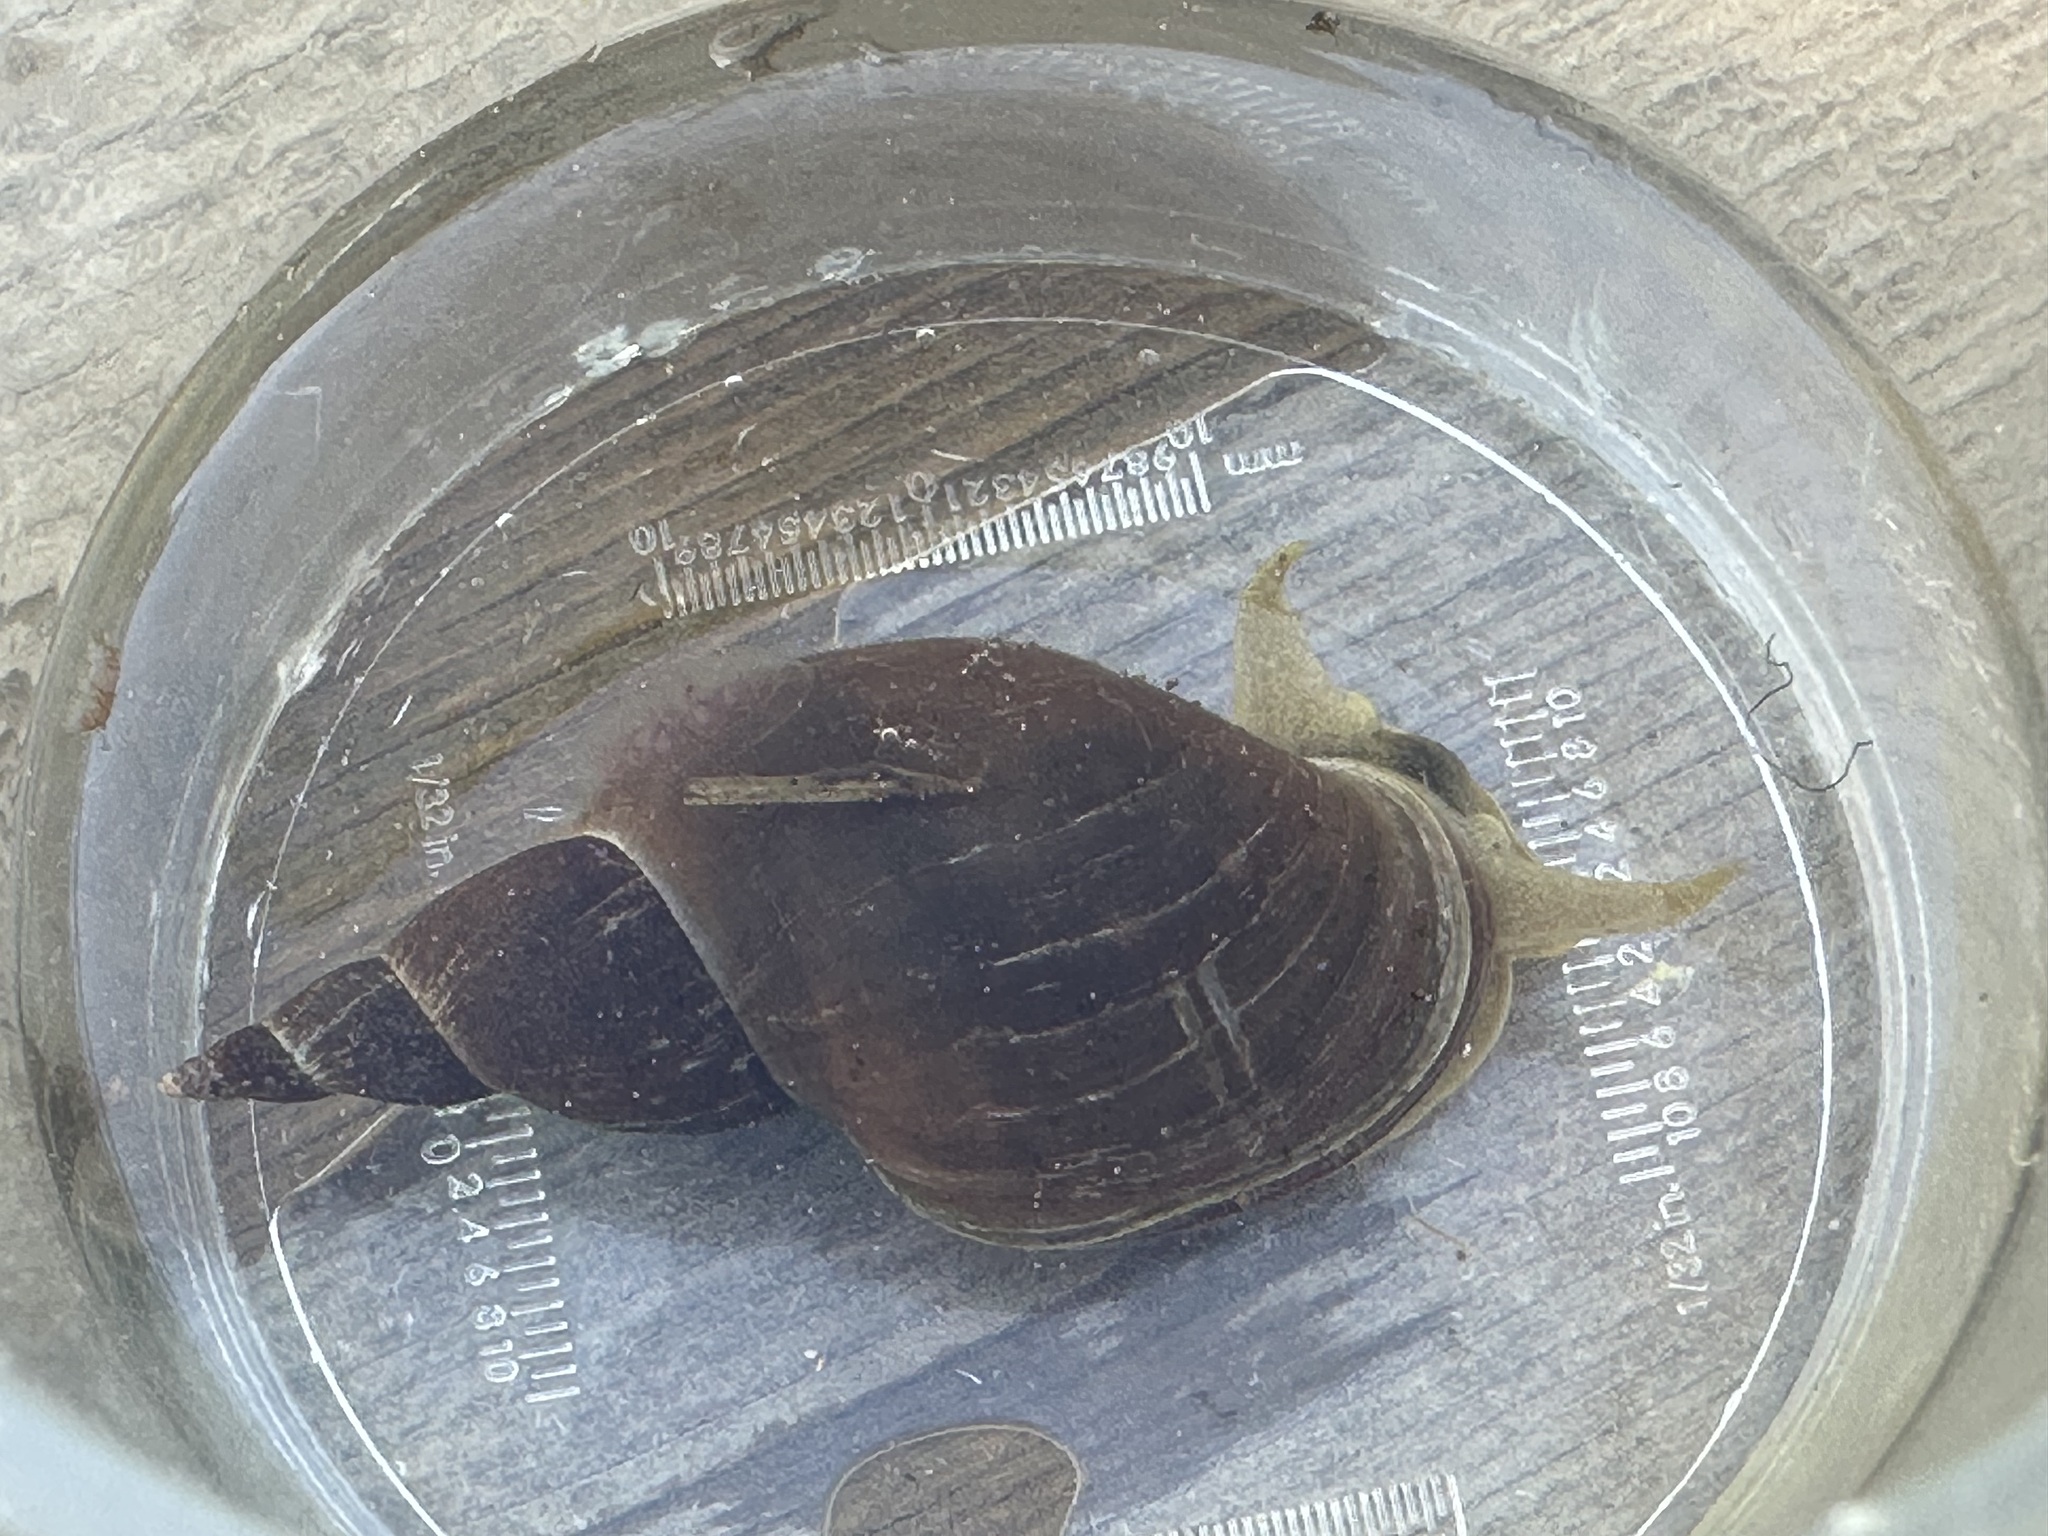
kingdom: Animalia
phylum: Mollusca
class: Gastropoda
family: Lymnaeidae
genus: Lymnaea
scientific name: Lymnaea stagnalis
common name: Great pond snail
